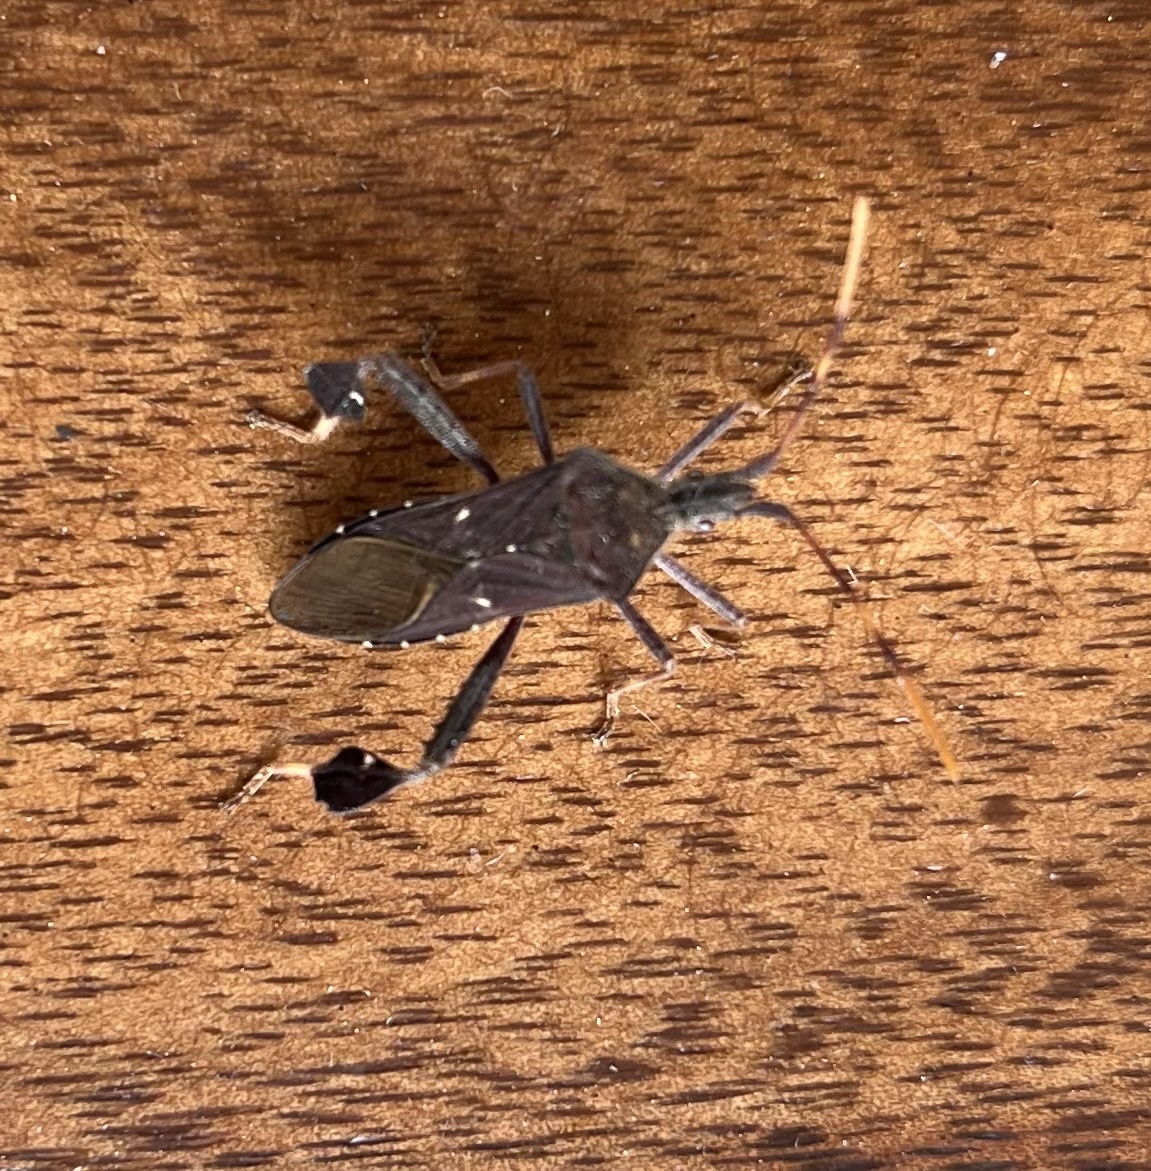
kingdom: Animalia
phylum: Arthropoda
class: Insecta
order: Hemiptera
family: Coreidae
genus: Leptoglossus
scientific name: Leptoglossus oppositus
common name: Northern leaf-footed bug
